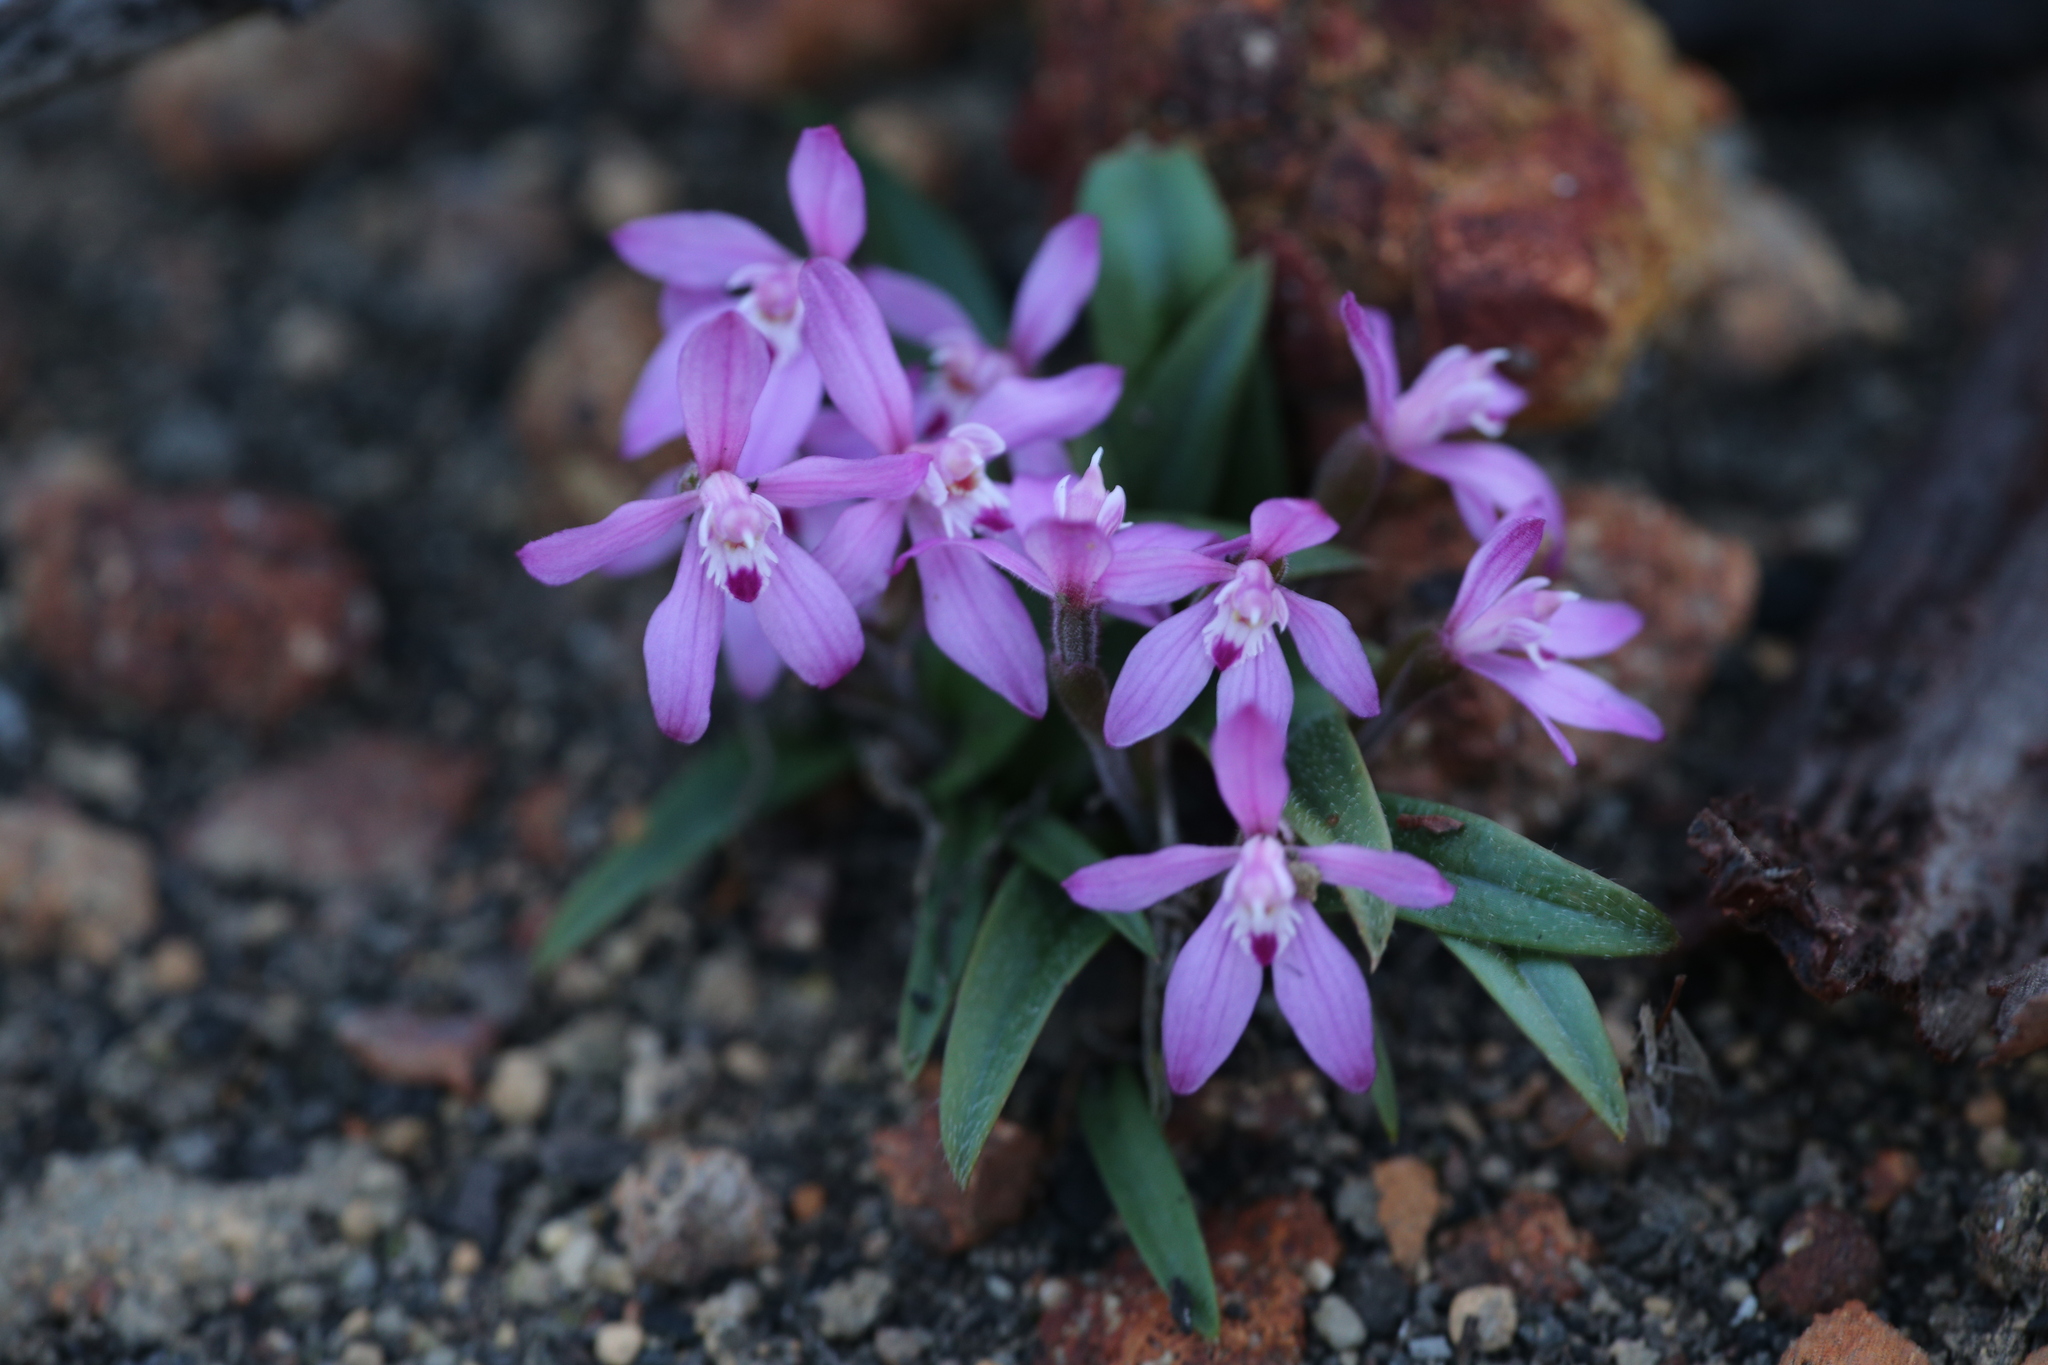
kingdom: Plantae
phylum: Tracheophyta
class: Liliopsida
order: Asparagales
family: Orchidaceae
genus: Caladenia
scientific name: Caladenia reptans
